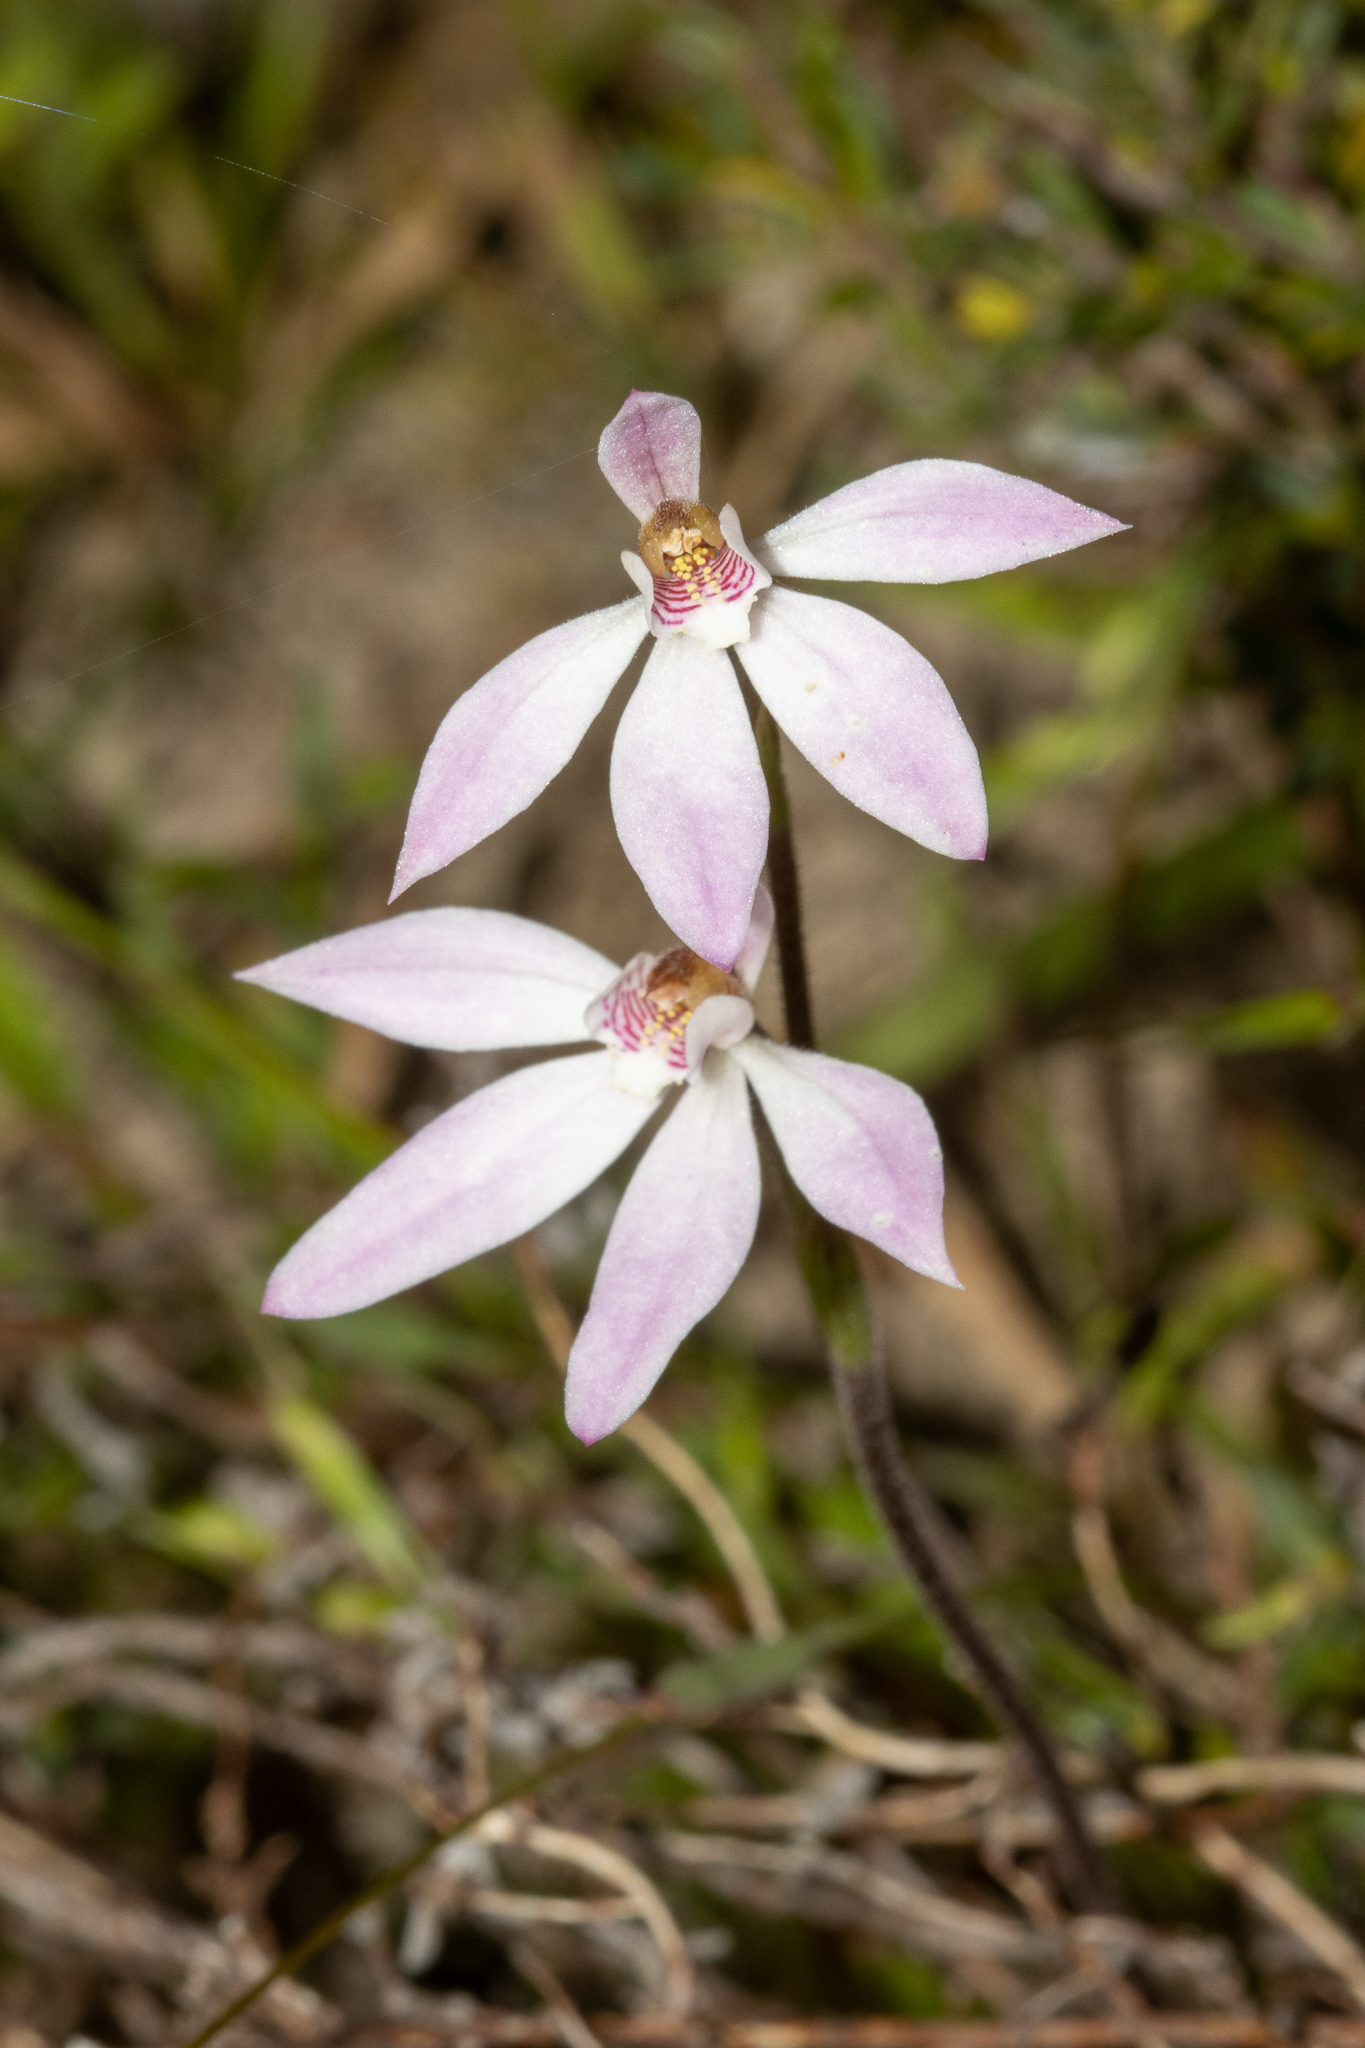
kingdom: Plantae
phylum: Tracheophyta
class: Liliopsida
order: Asparagales
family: Orchidaceae
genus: Caladenia
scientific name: Caladenia carnea
